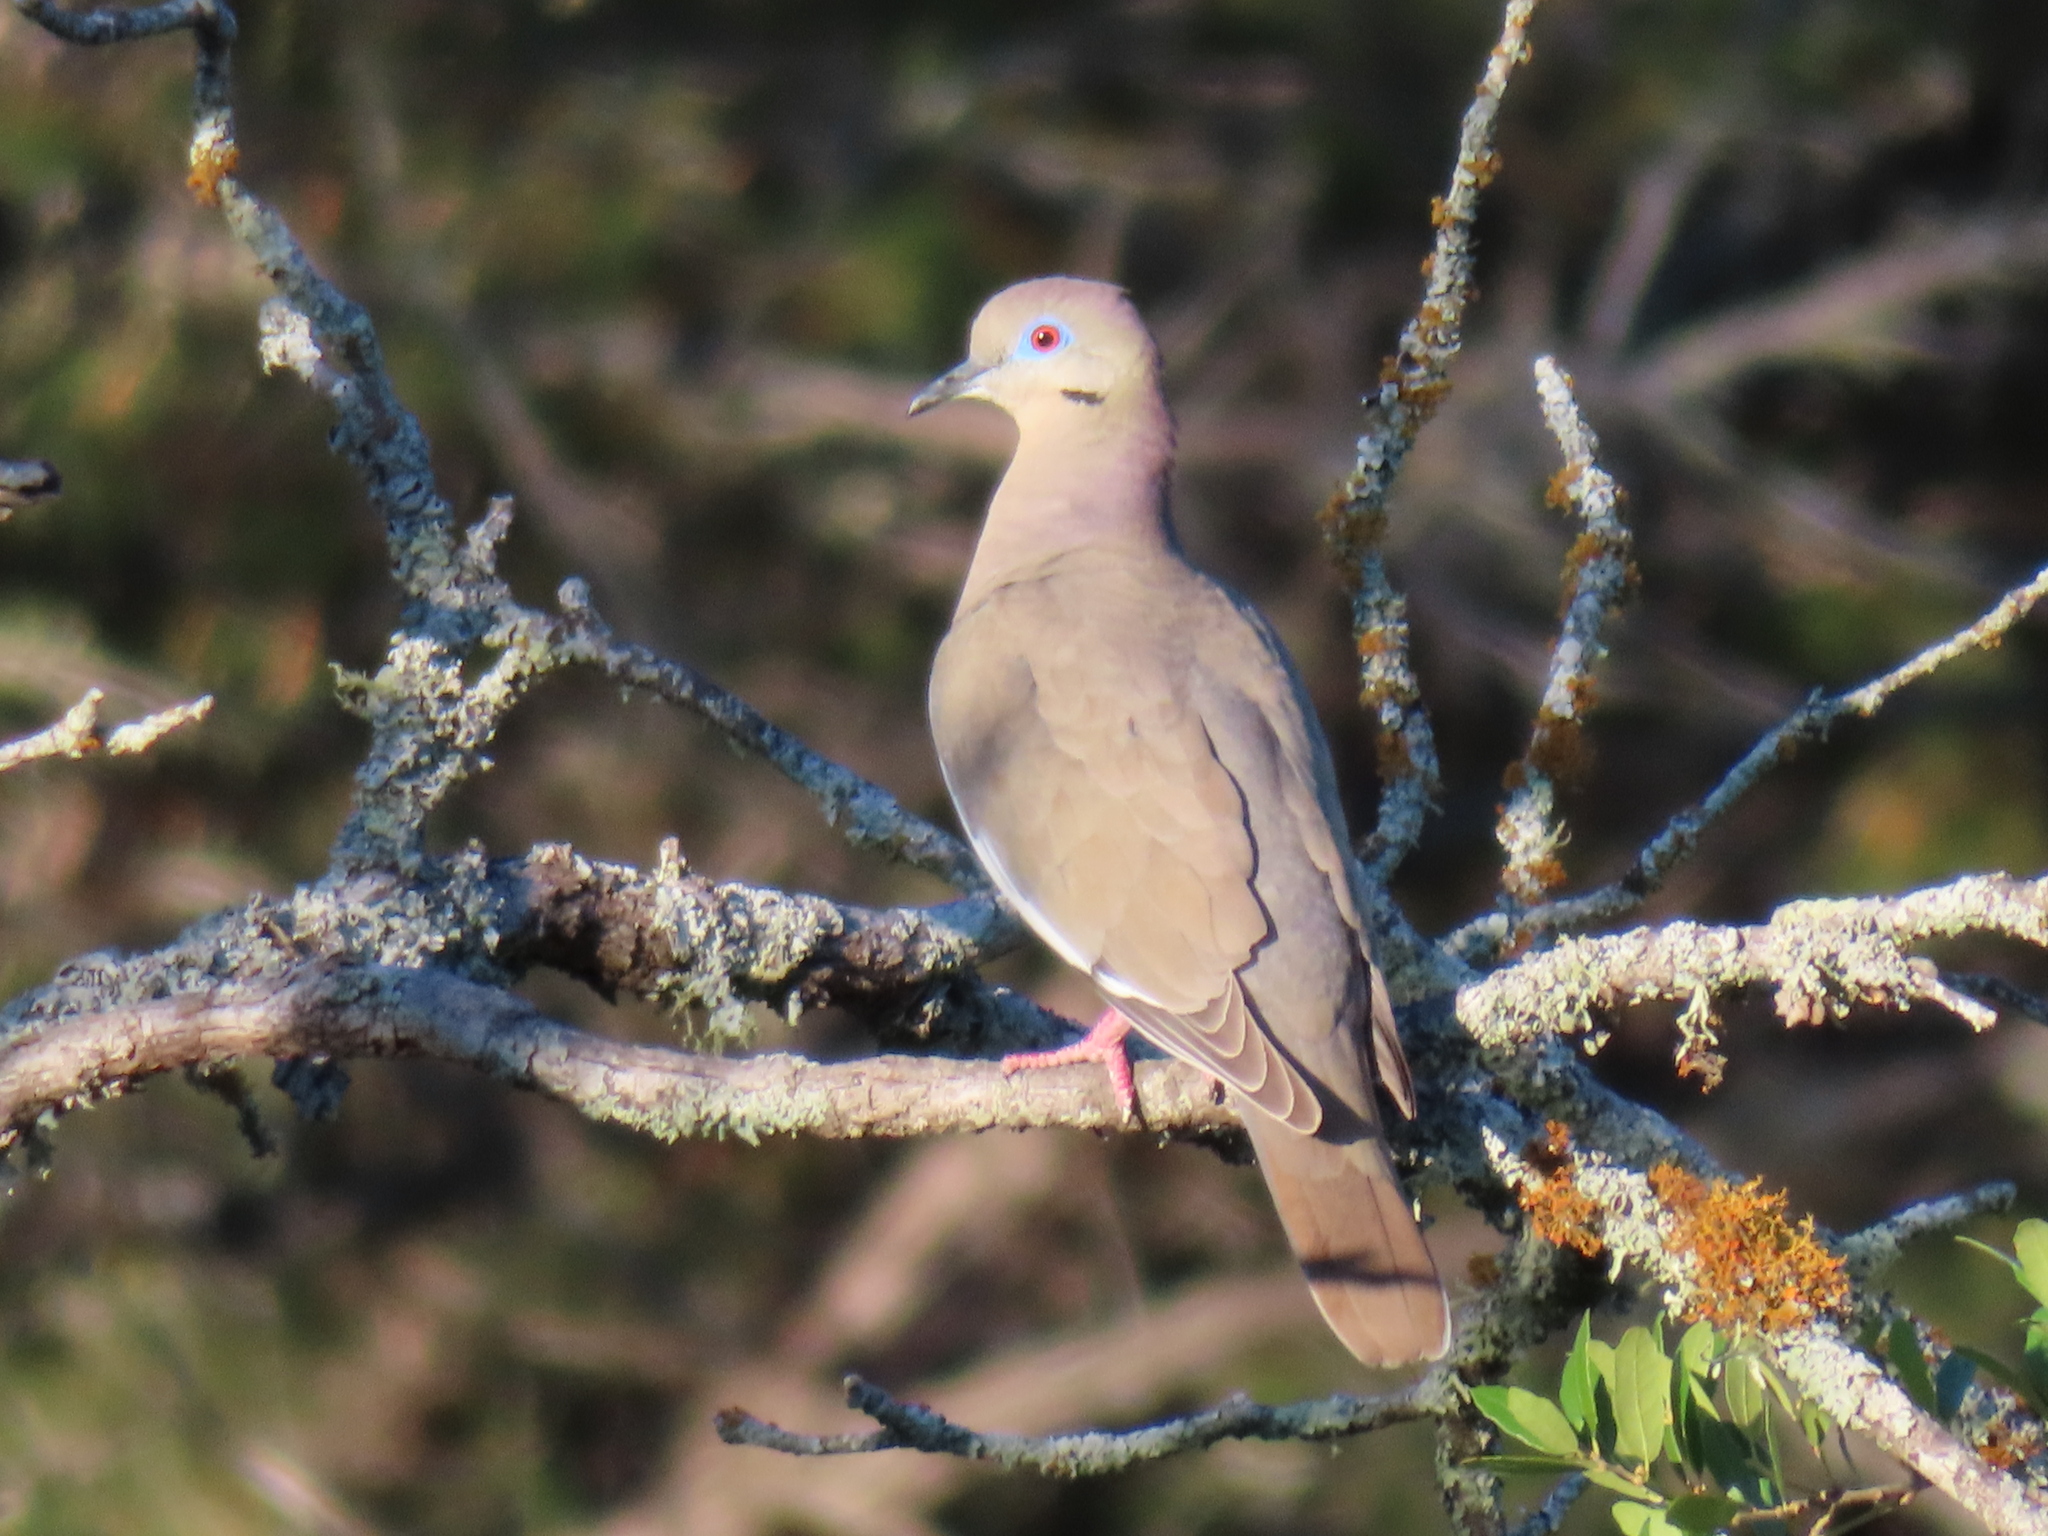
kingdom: Animalia
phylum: Chordata
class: Aves
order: Columbiformes
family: Columbidae
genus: Zenaida
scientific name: Zenaida asiatica
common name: White-winged dove
